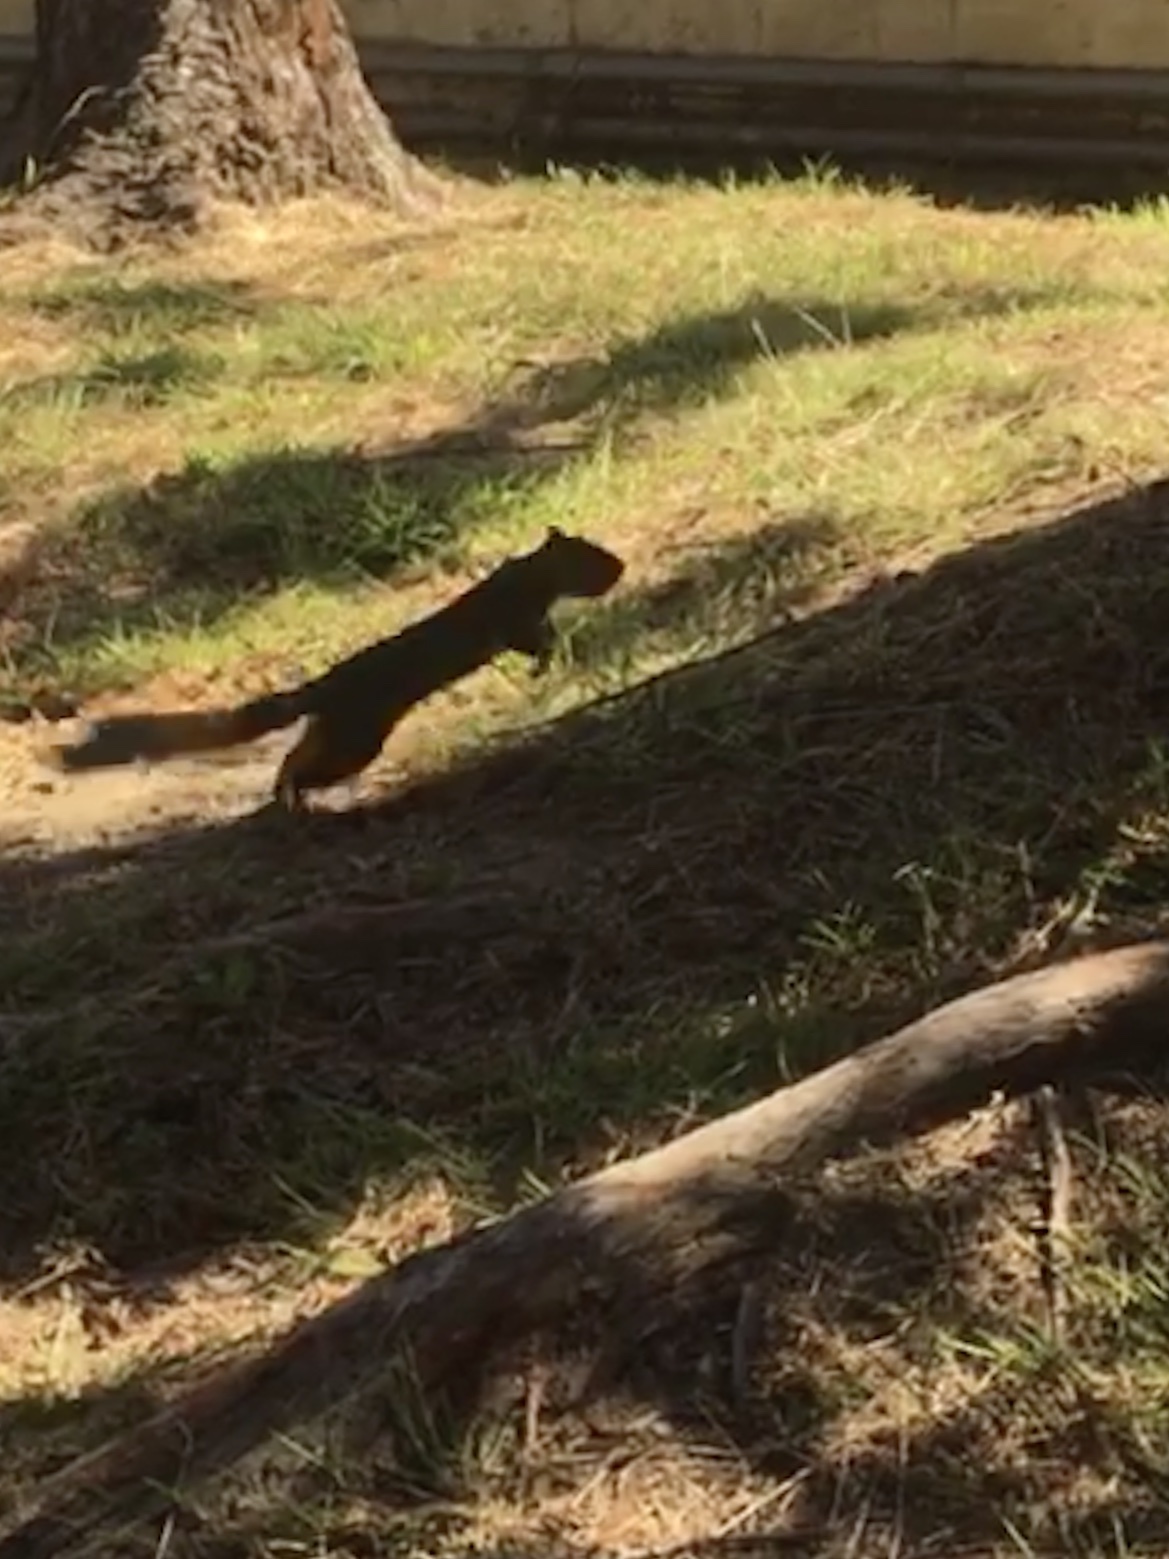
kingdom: Animalia
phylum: Chordata
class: Mammalia
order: Rodentia
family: Sciuridae
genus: Sciurus
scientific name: Sciurus niger
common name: Fox squirrel
